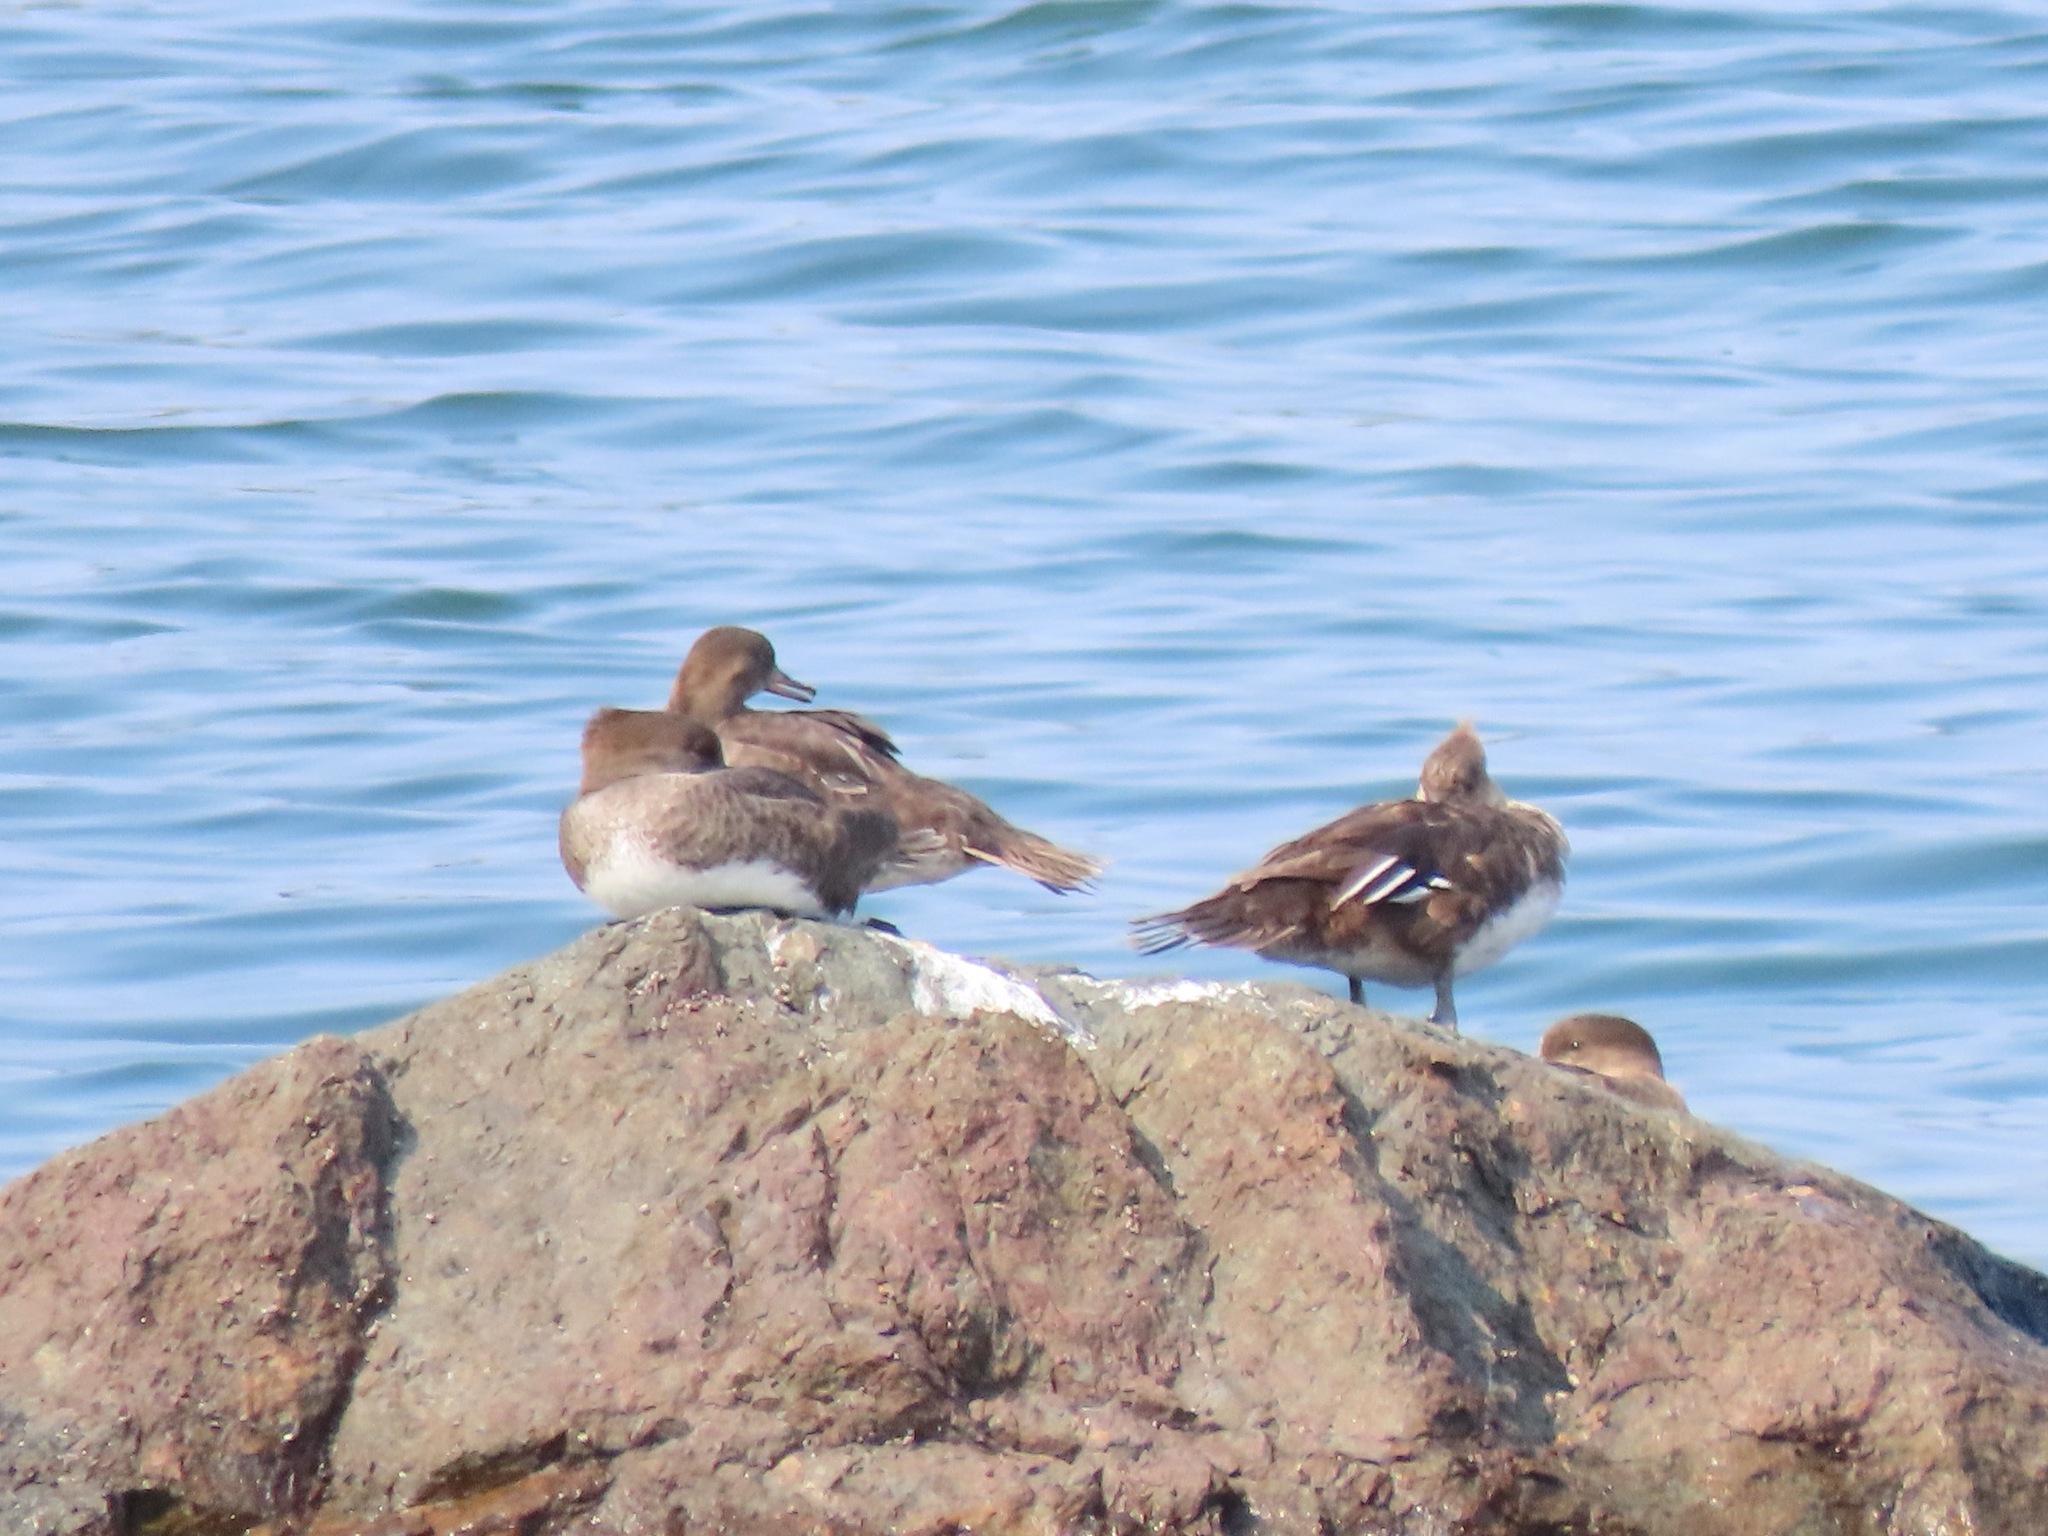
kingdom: Animalia
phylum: Chordata
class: Aves
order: Anseriformes
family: Anatidae
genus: Lophodytes
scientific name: Lophodytes cucullatus
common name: Hooded merganser
